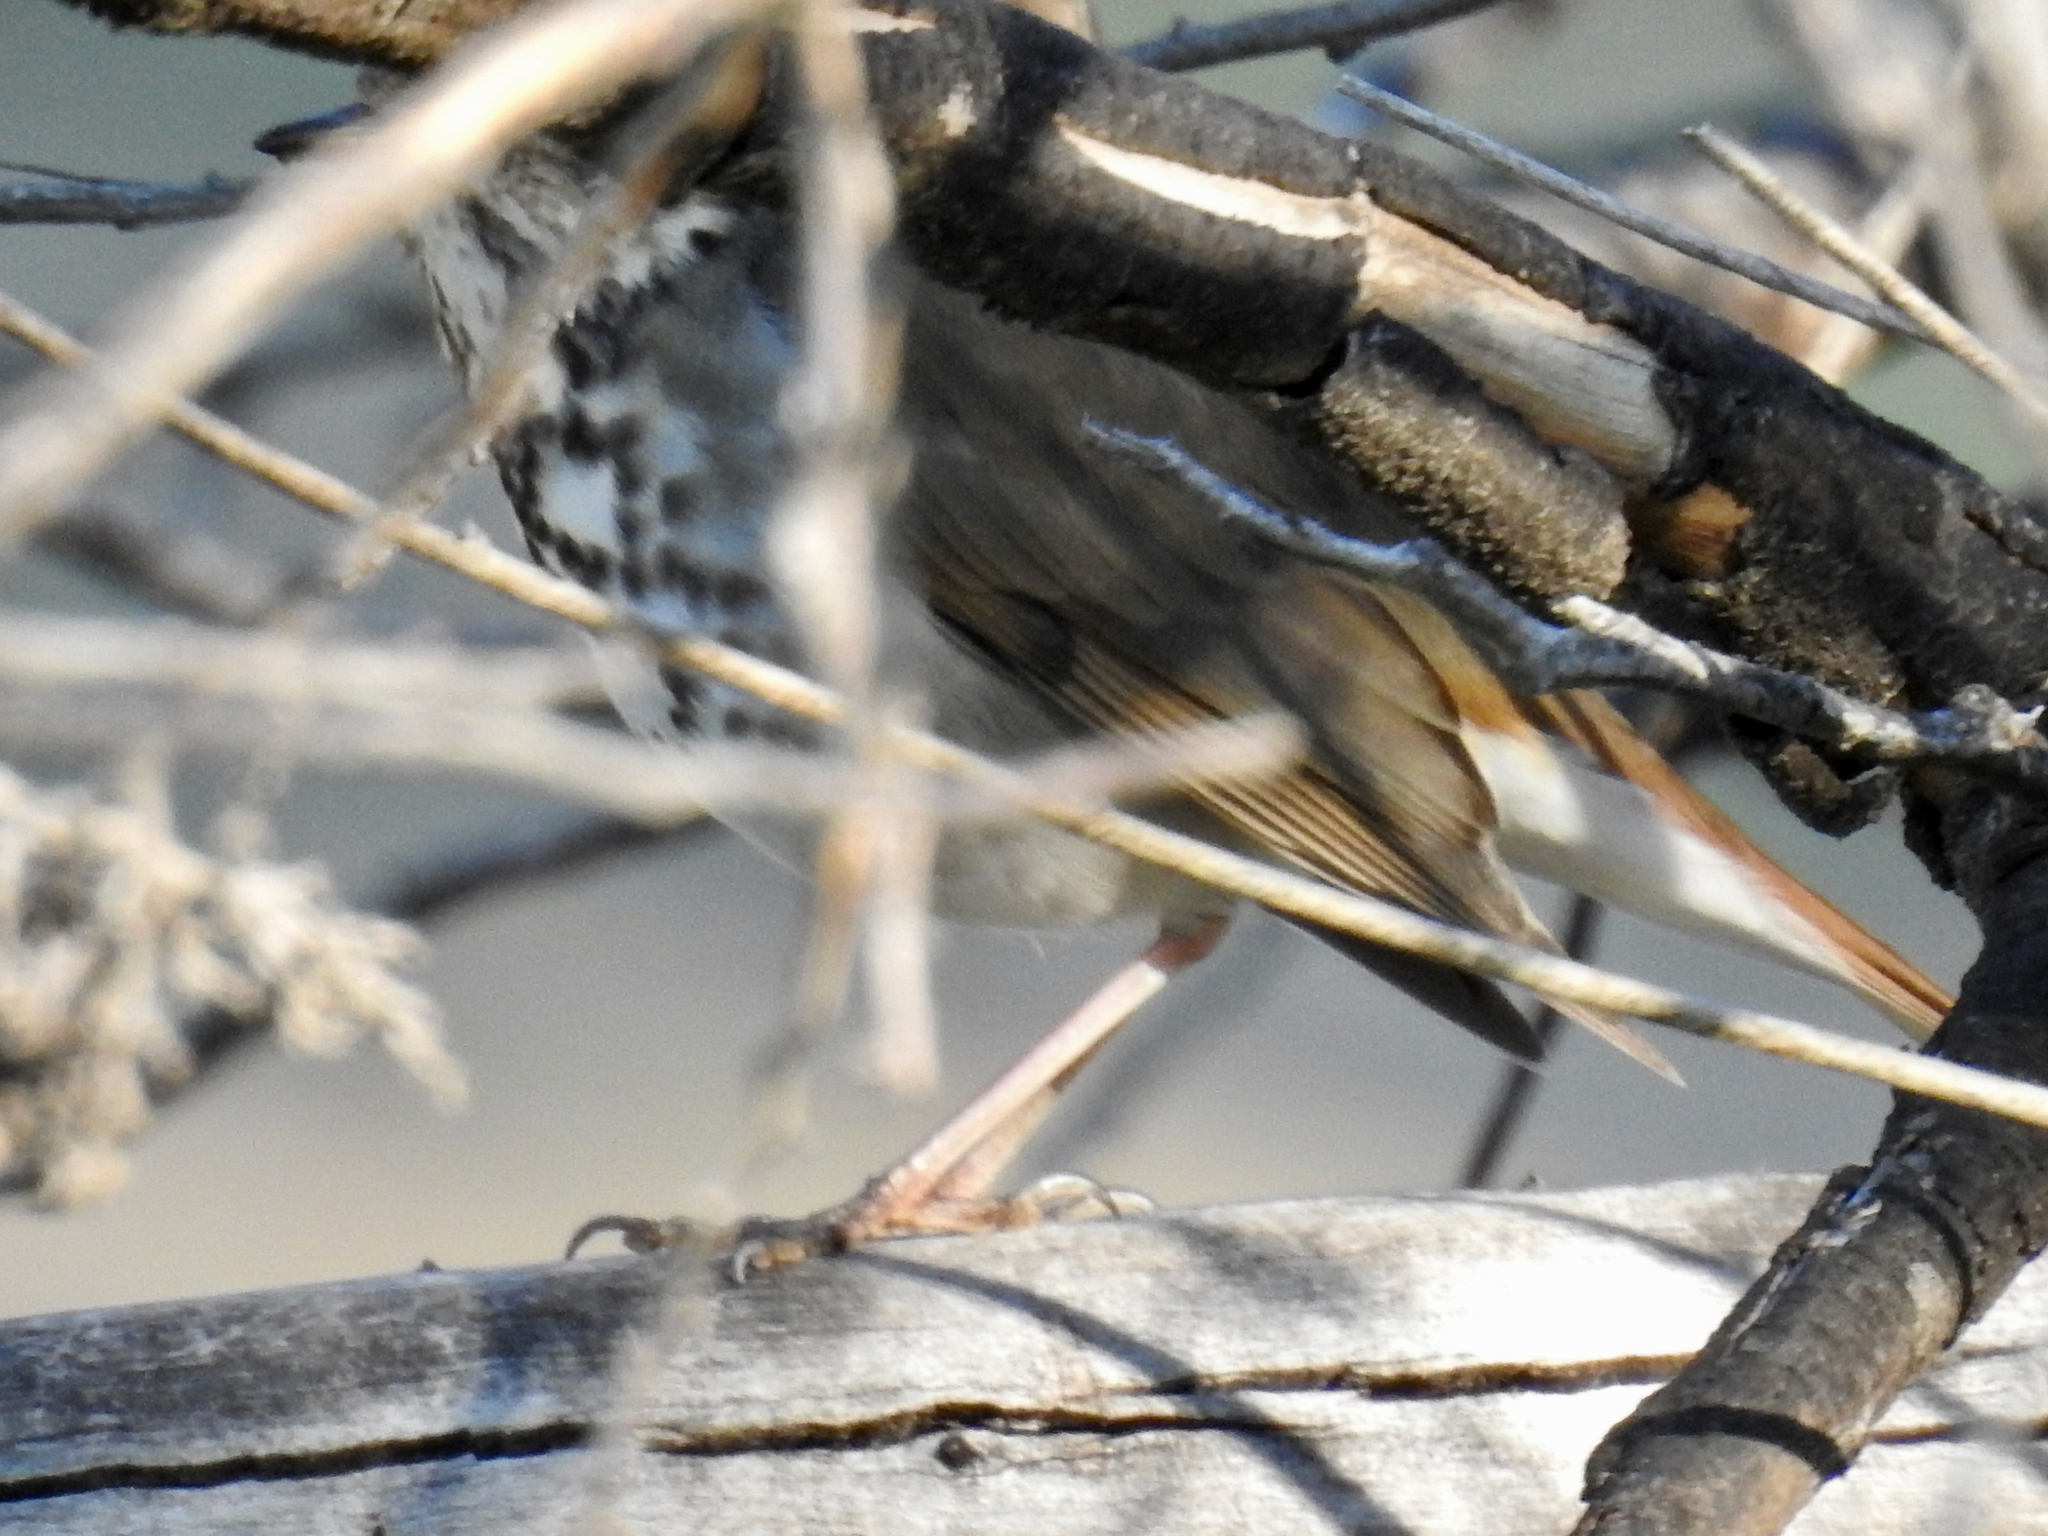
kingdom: Animalia
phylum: Chordata
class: Aves
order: Passeriformes
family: Turdidae
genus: Catharus
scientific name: Catharus guttatus
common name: Hermit thrush
